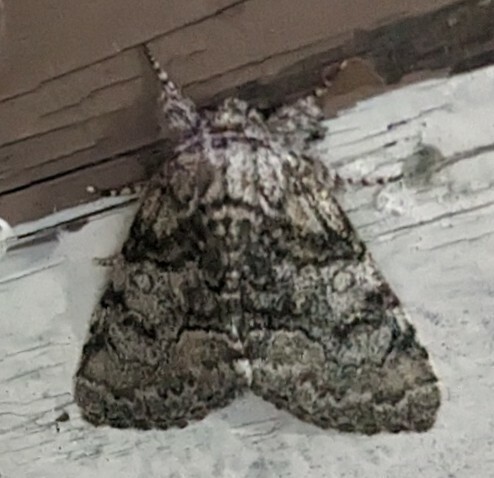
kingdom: Animalia
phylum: Arthropoda
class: Insecta
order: Lepidoptera
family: Noctuidae
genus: Raphia
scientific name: Raphia frater
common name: Brother
